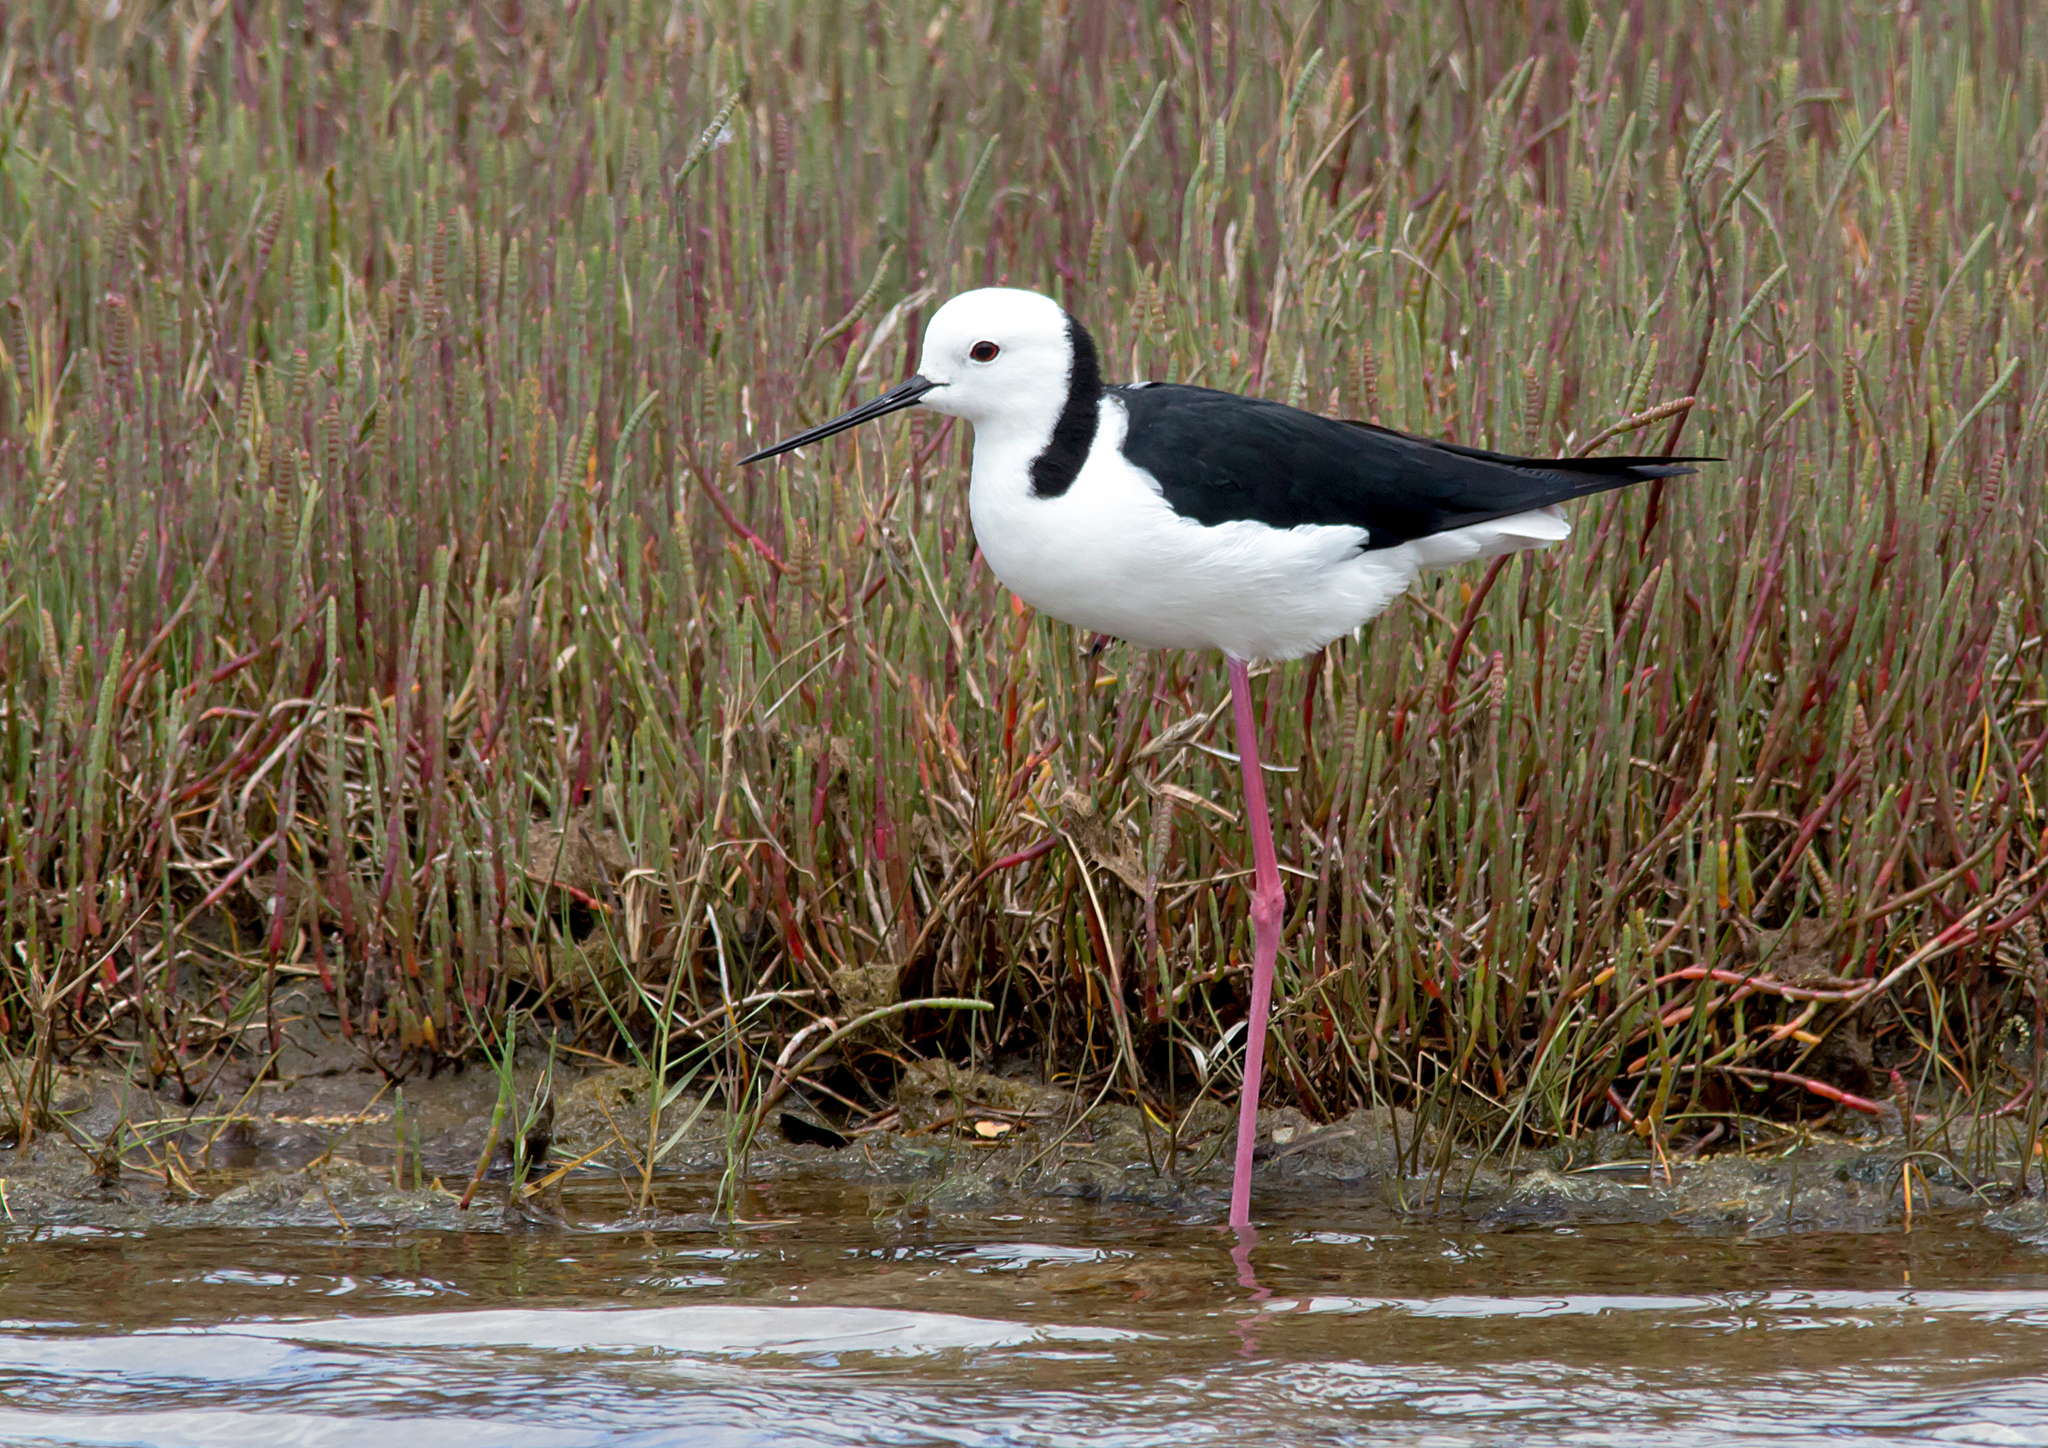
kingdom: Animalia
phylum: Chordata
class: Aves
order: Charadriiformes
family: Recurvirostridae
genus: Himantopus
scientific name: Himantopus leucocephalus
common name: White-headed stilt
